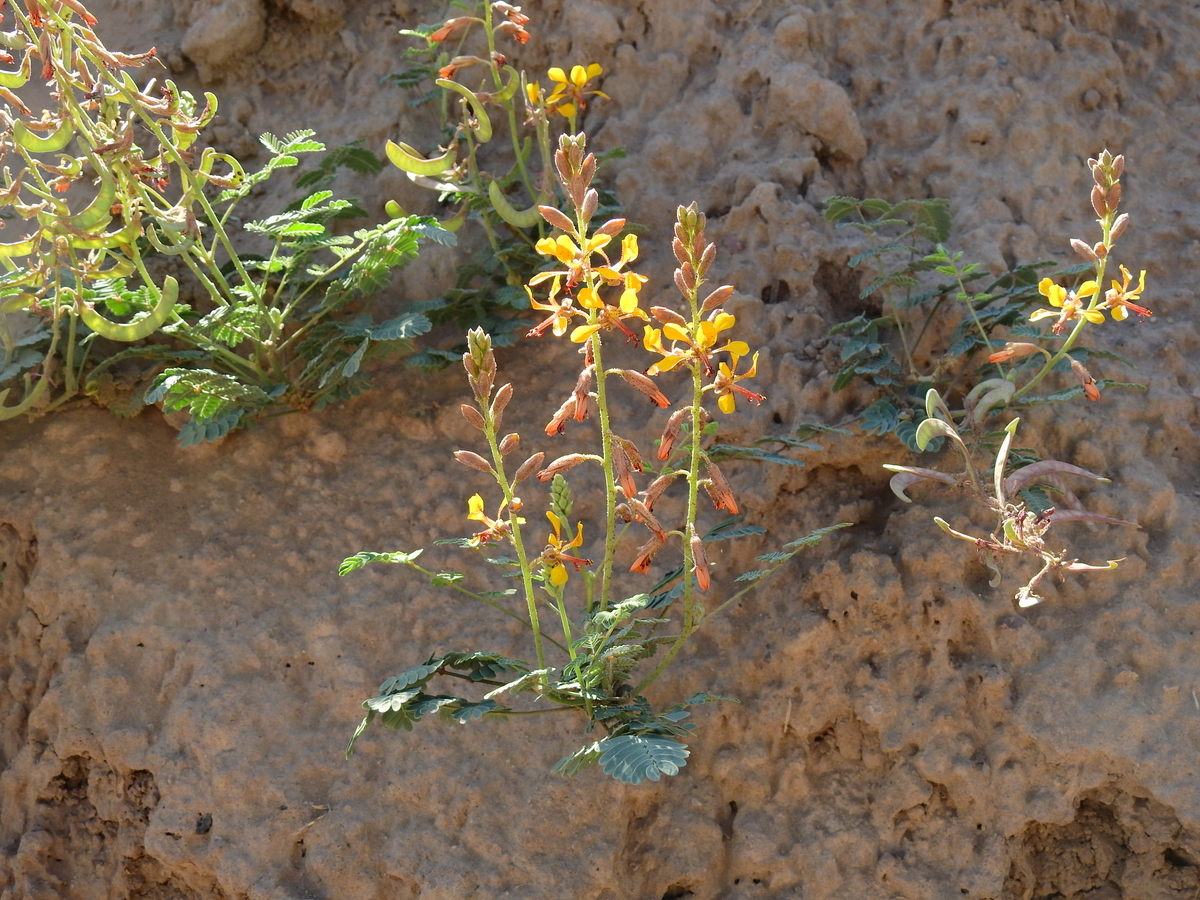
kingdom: Plantae
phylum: Tracheophyta
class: Magnoliopsida
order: Fabales
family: Fabaceae
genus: Hoffmannseggia
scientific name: Hoffmannseggia glauca
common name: Pignut
